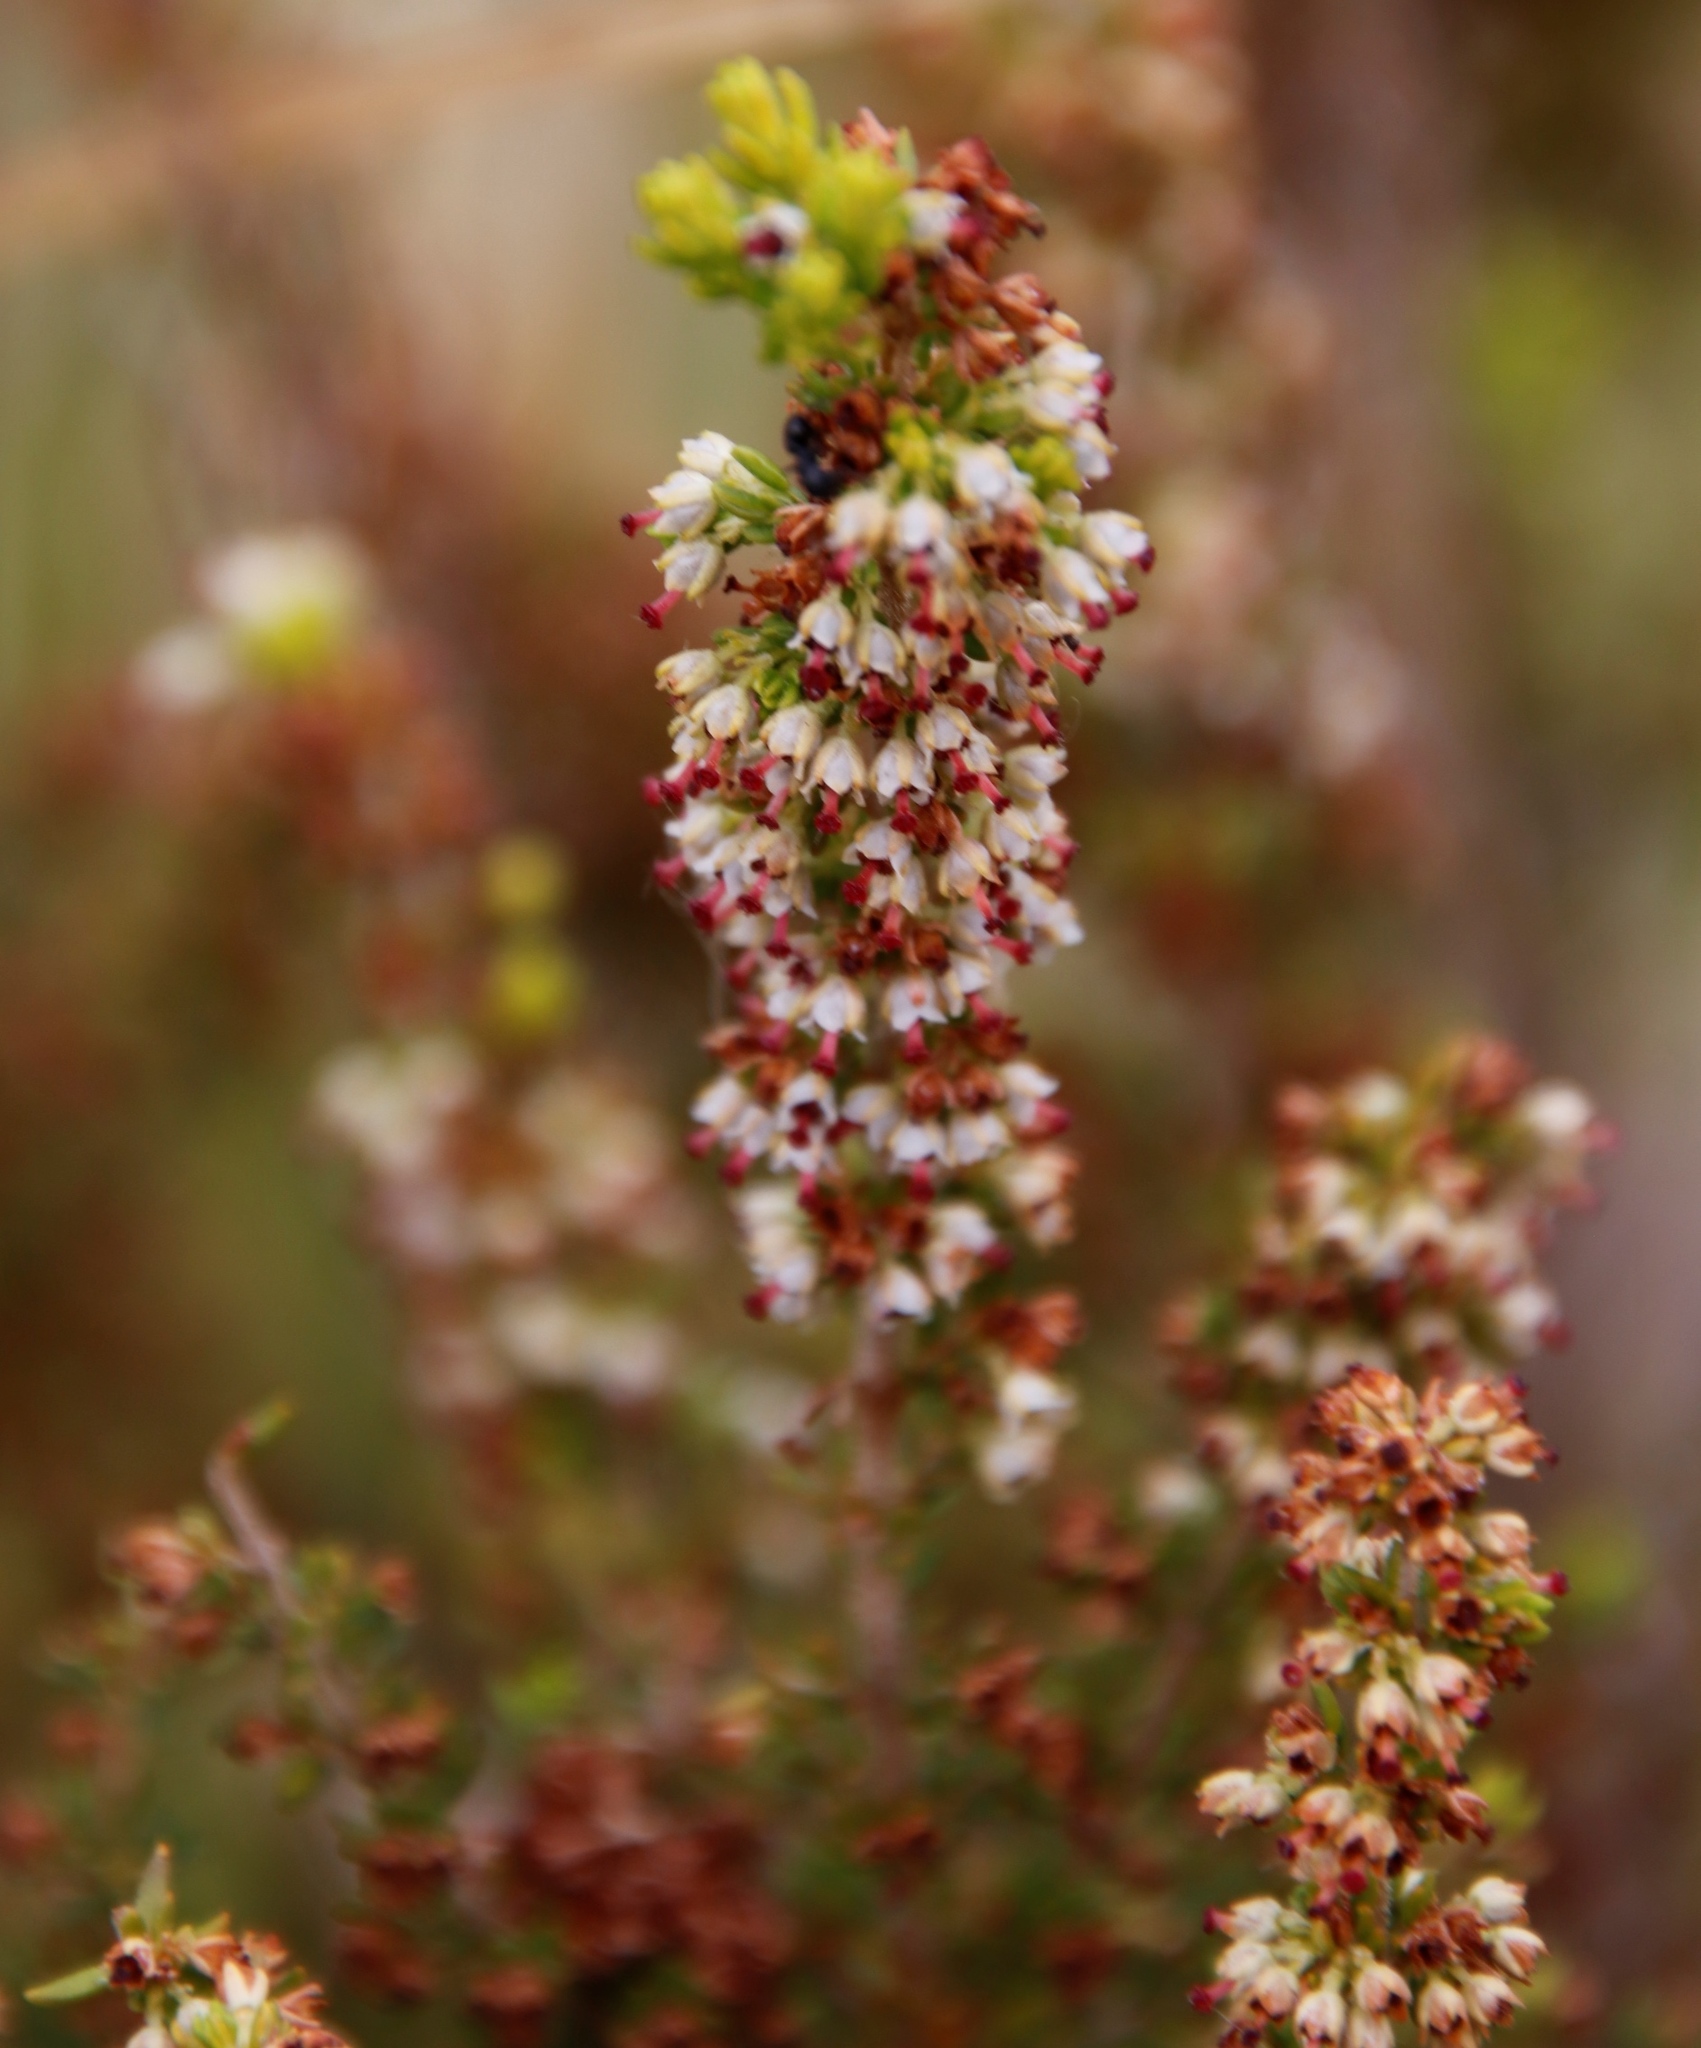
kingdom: Plantae
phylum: Tracheophyta
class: Magnoliopsida
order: Ericales
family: Ericaceae
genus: Erica
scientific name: Erica hispidula
